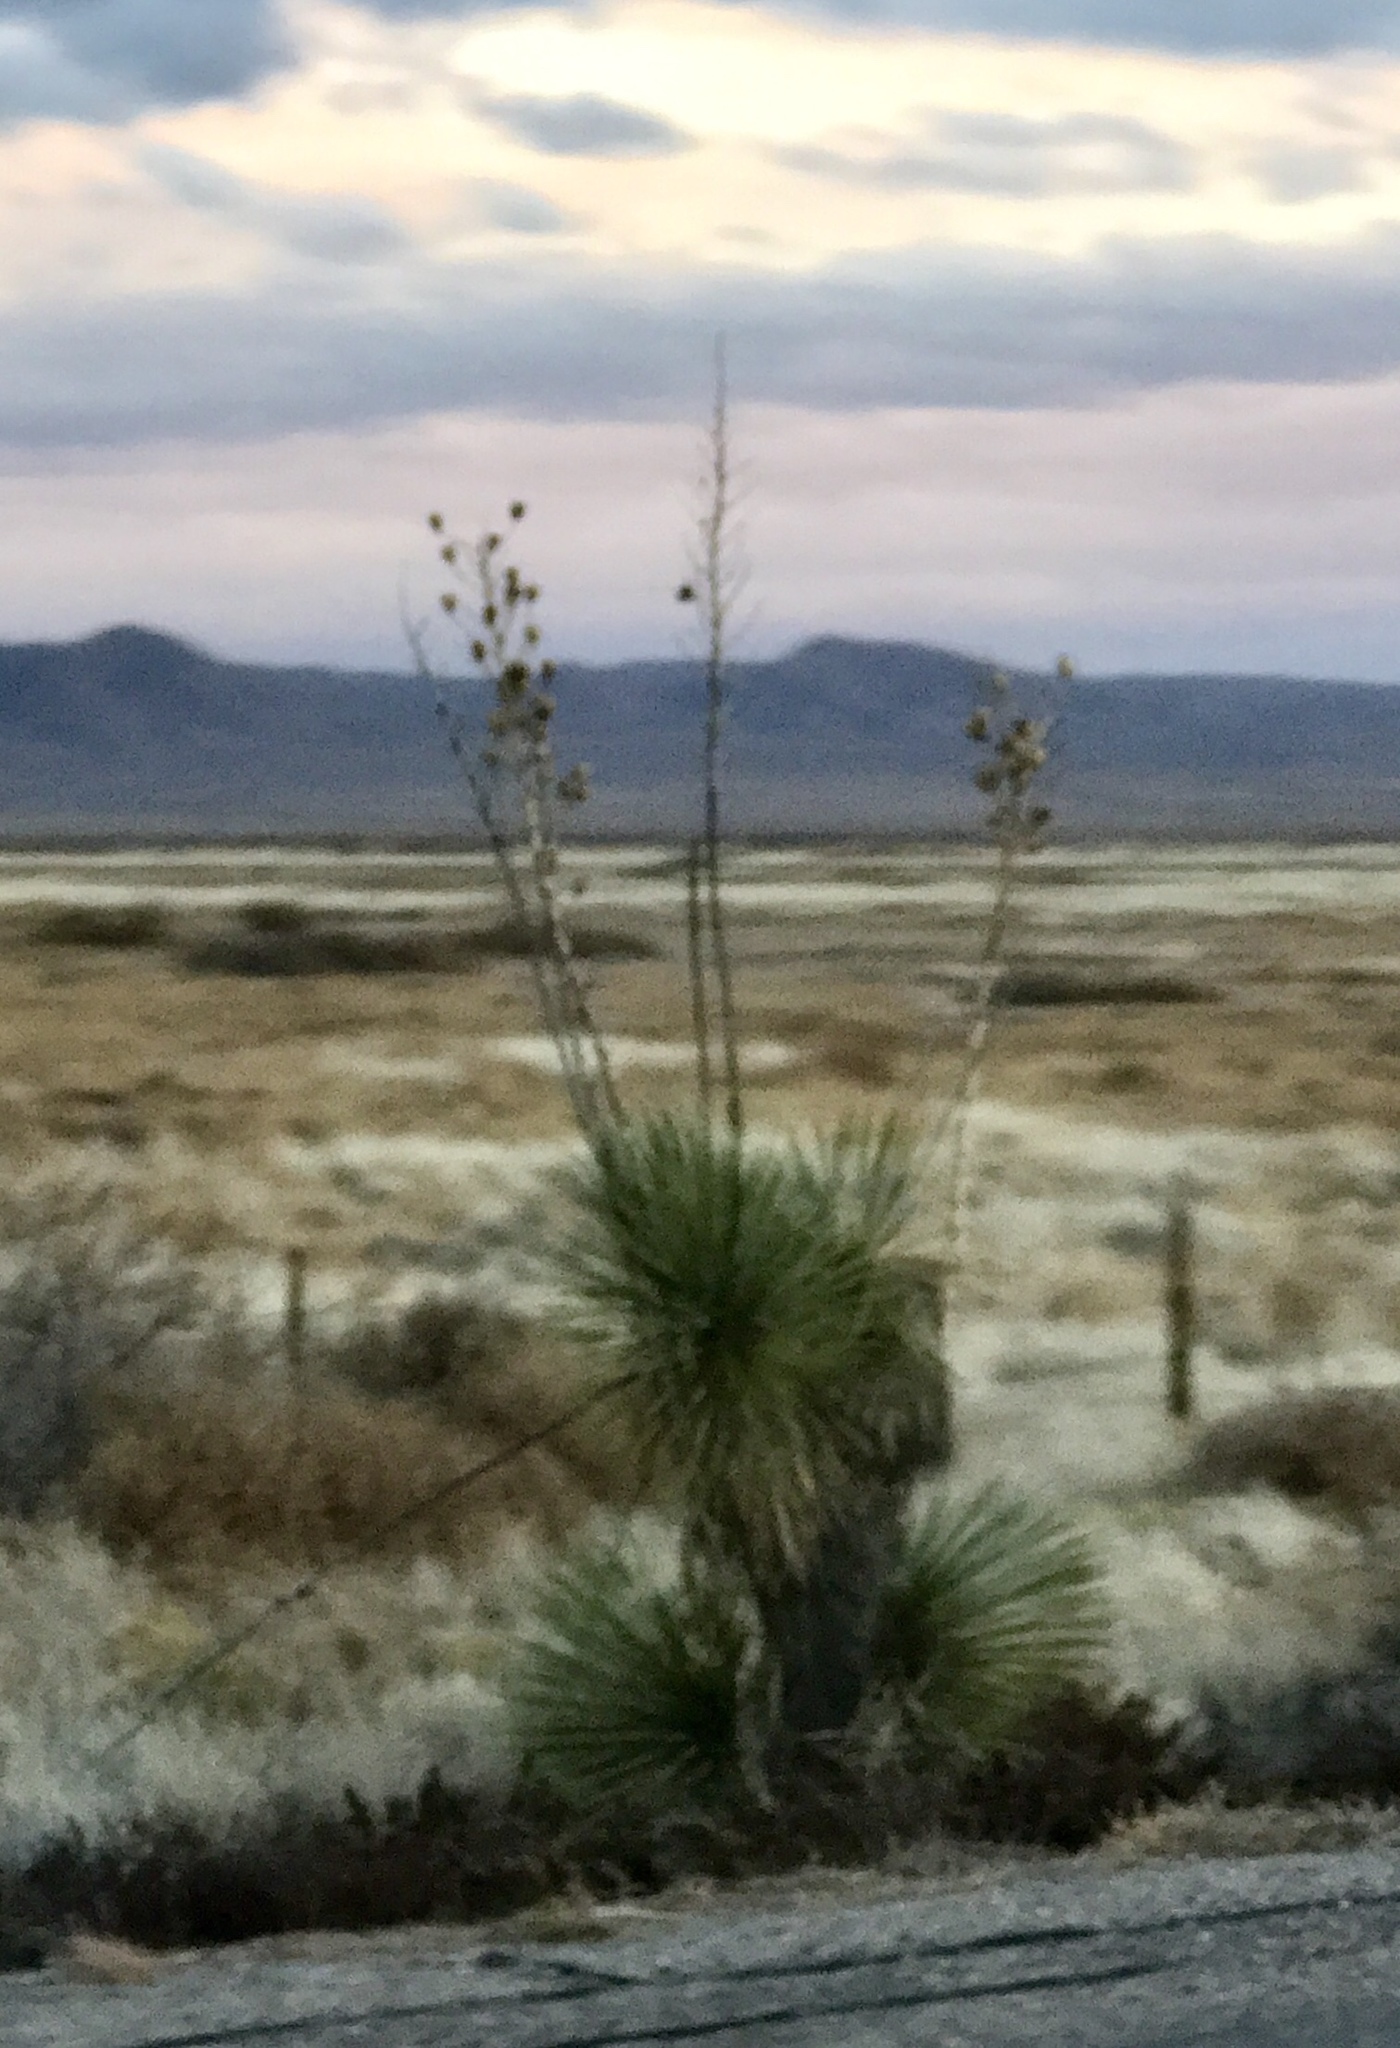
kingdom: Plantae
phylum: Tracheophyta
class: Liliopsida
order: Asparagales
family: Asparagaceae
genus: Yucca
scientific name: Yucca elata
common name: Palmella
